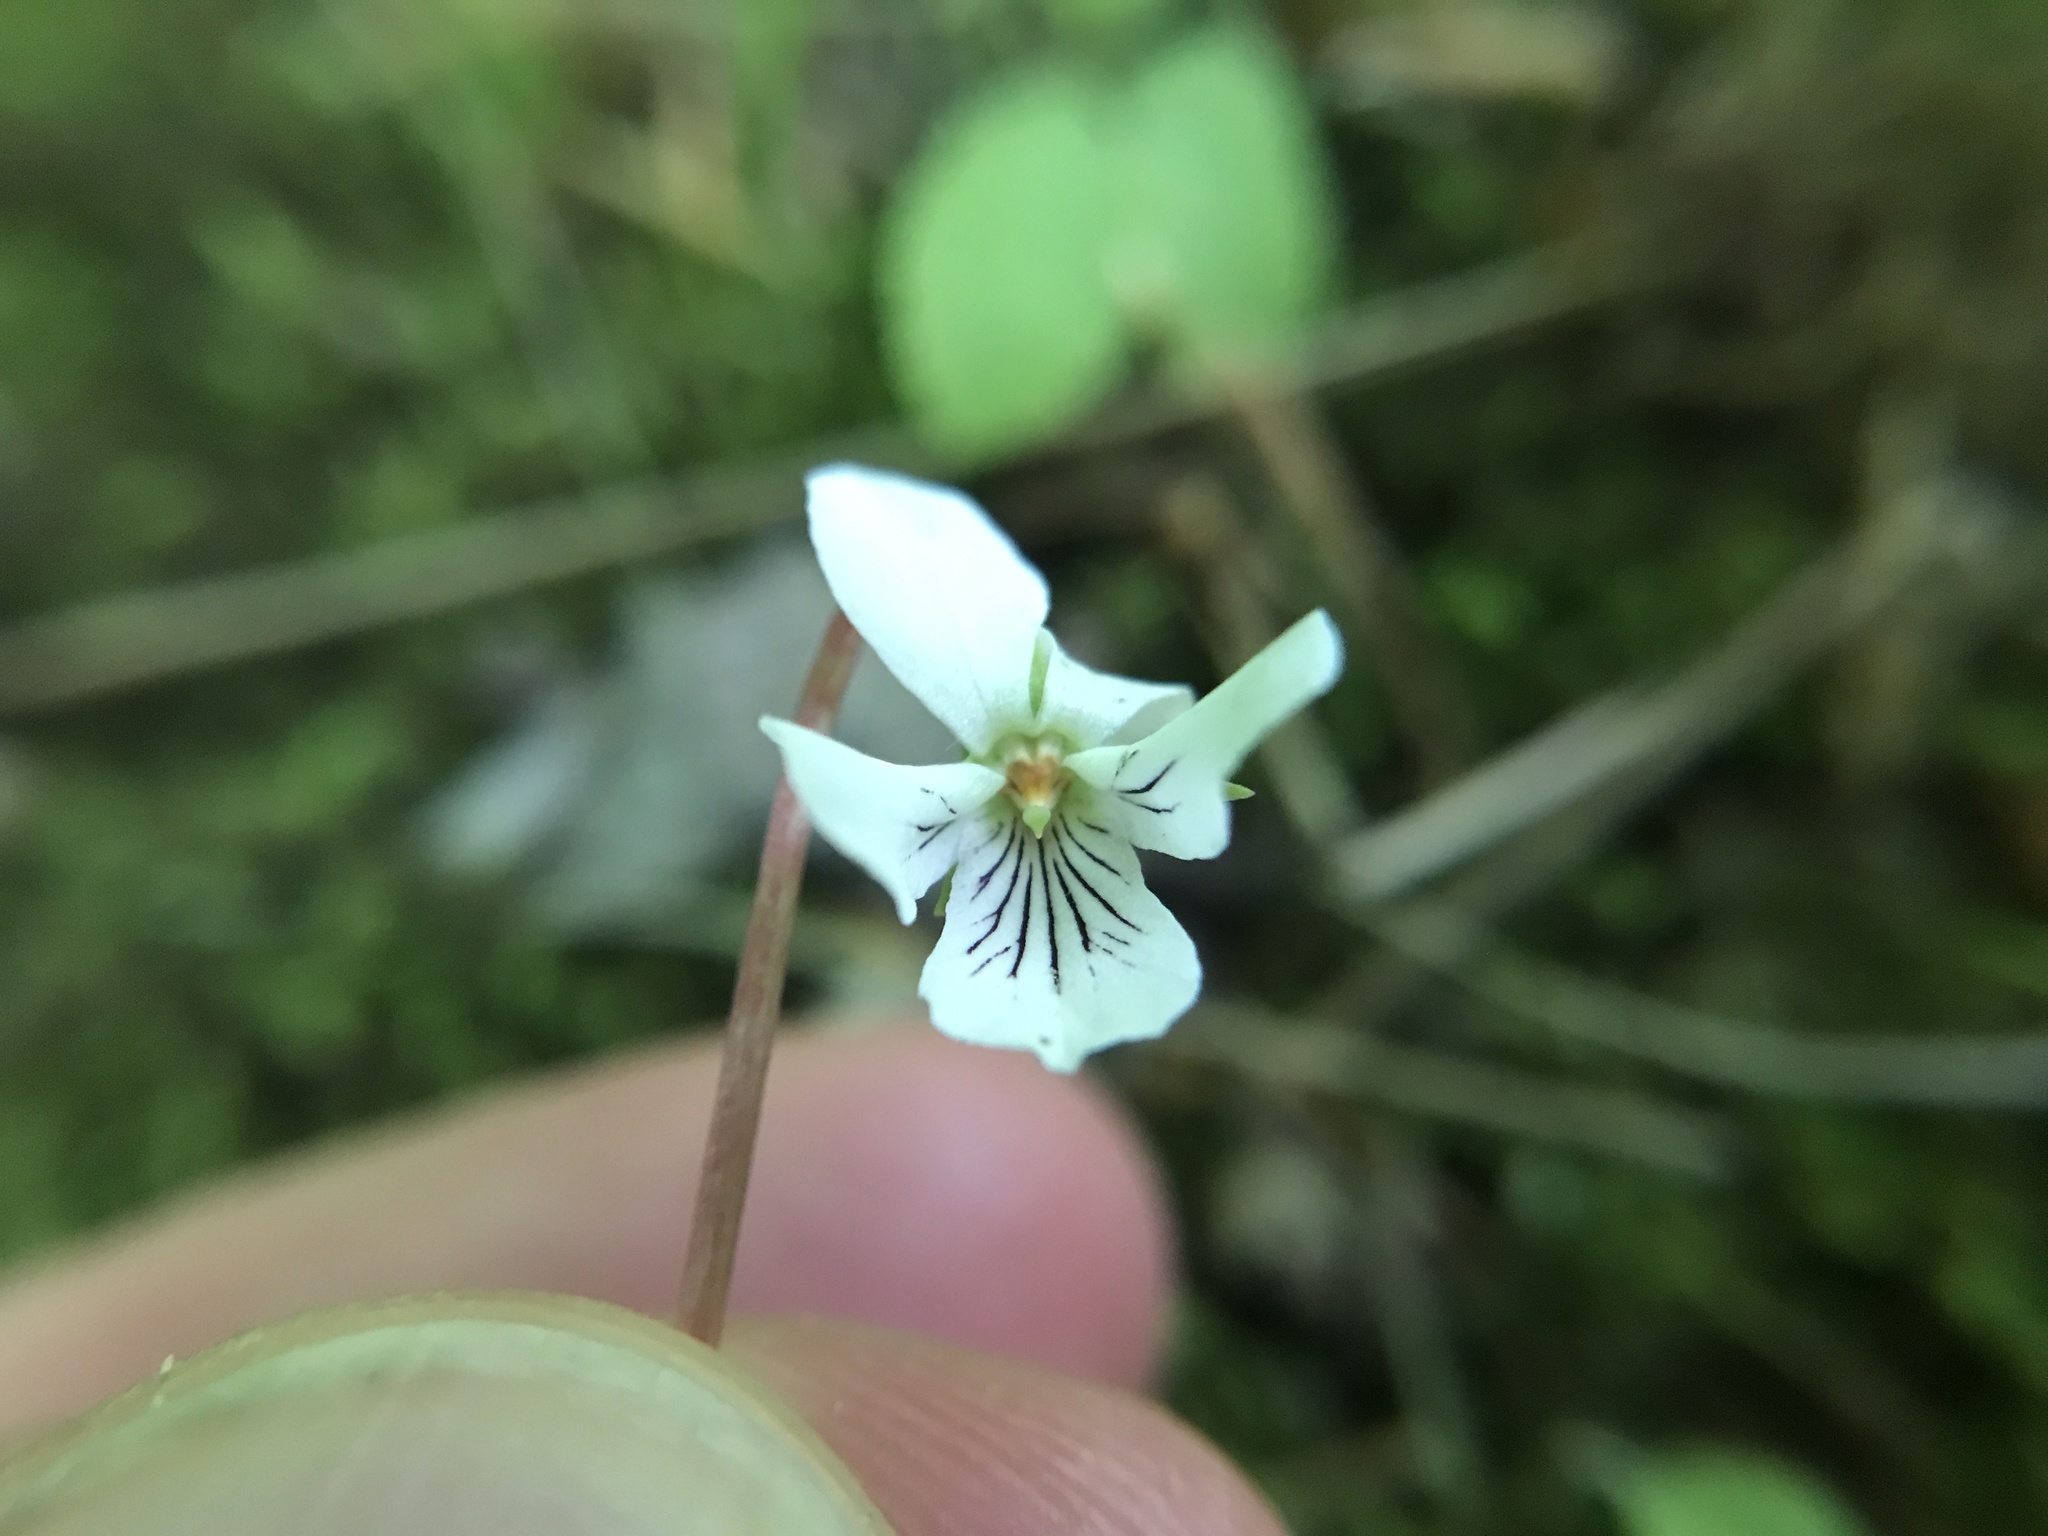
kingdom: Plantae
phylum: Tracheophyta
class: Magnoliopsida
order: Malpighiales
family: Violaceae
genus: Viola
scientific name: Viola primulifolia
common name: Primrose-leaf violet
